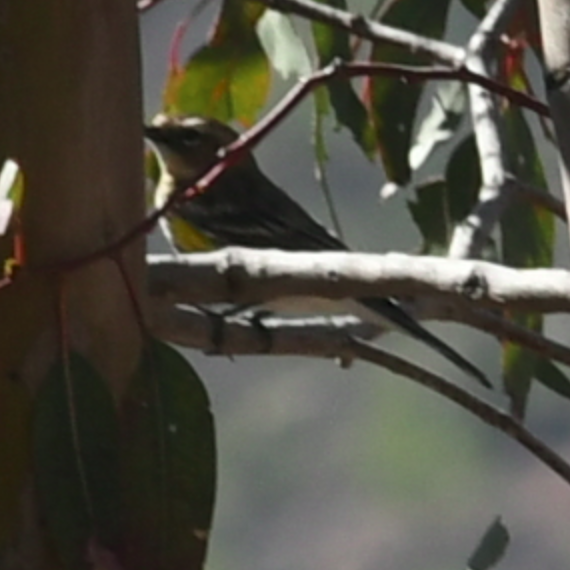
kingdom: Animalia
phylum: Chordata
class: Aves
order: Passeriformes
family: Parulidae
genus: Setophaga
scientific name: Setophaga coronata
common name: Myrtle warbler
